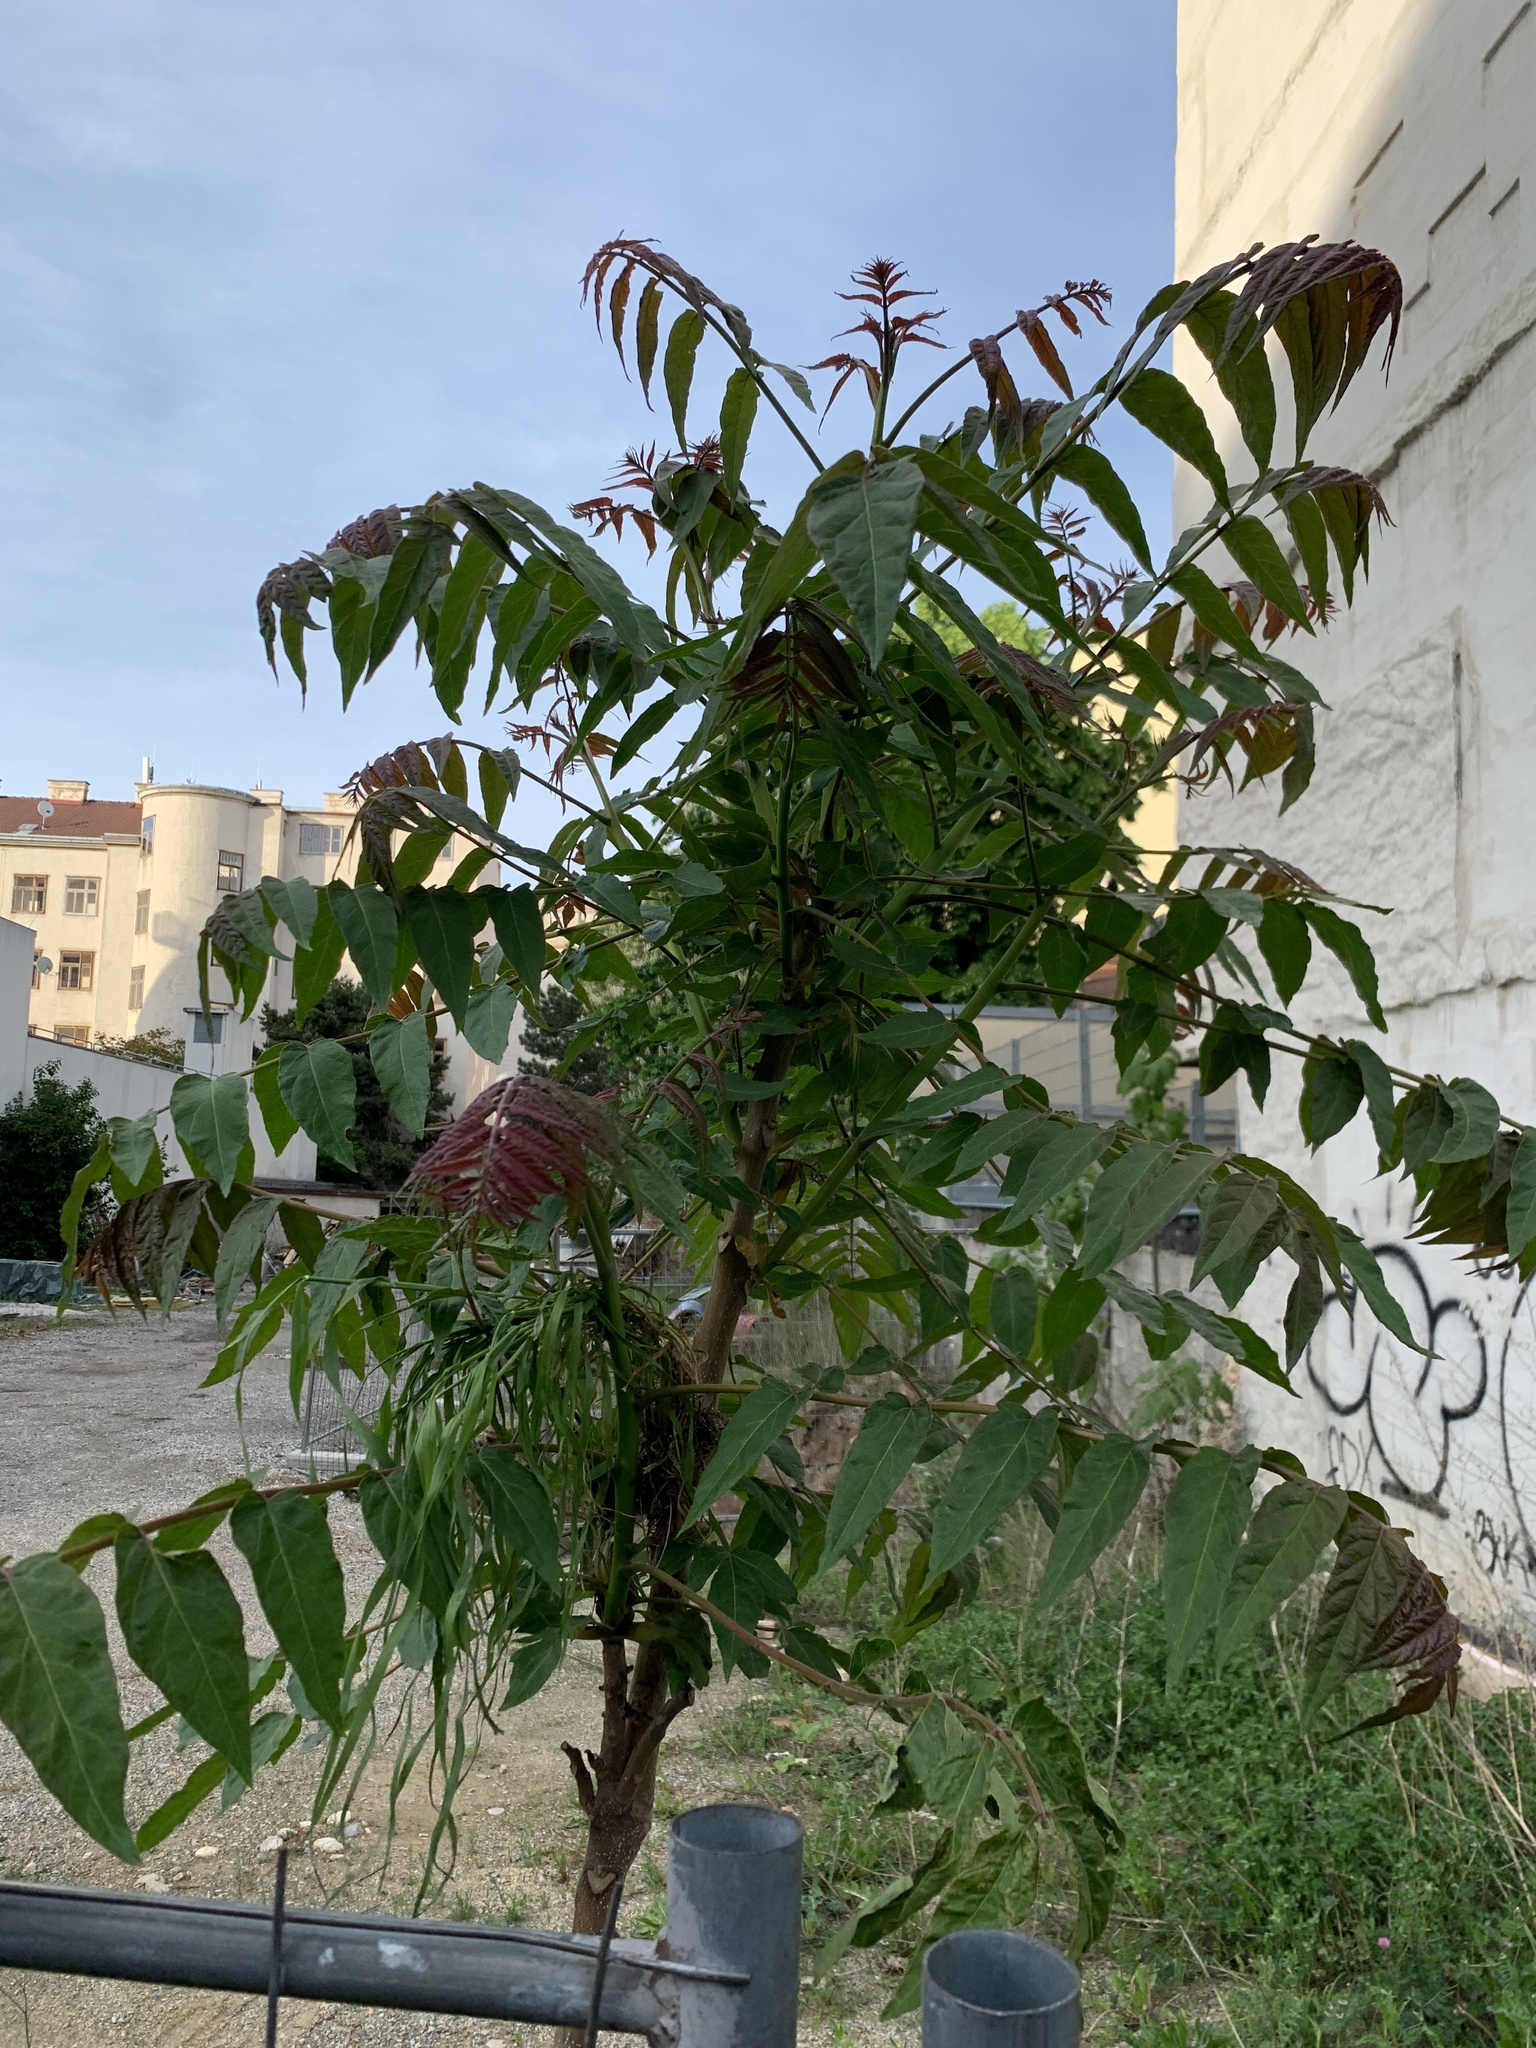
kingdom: Plantae
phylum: Tracheophyta
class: Magnoliopsida
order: Sapindales
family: Simaroubaceae
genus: Ailanthus
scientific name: Ailanthus altissima
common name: Tree-of-heaven
